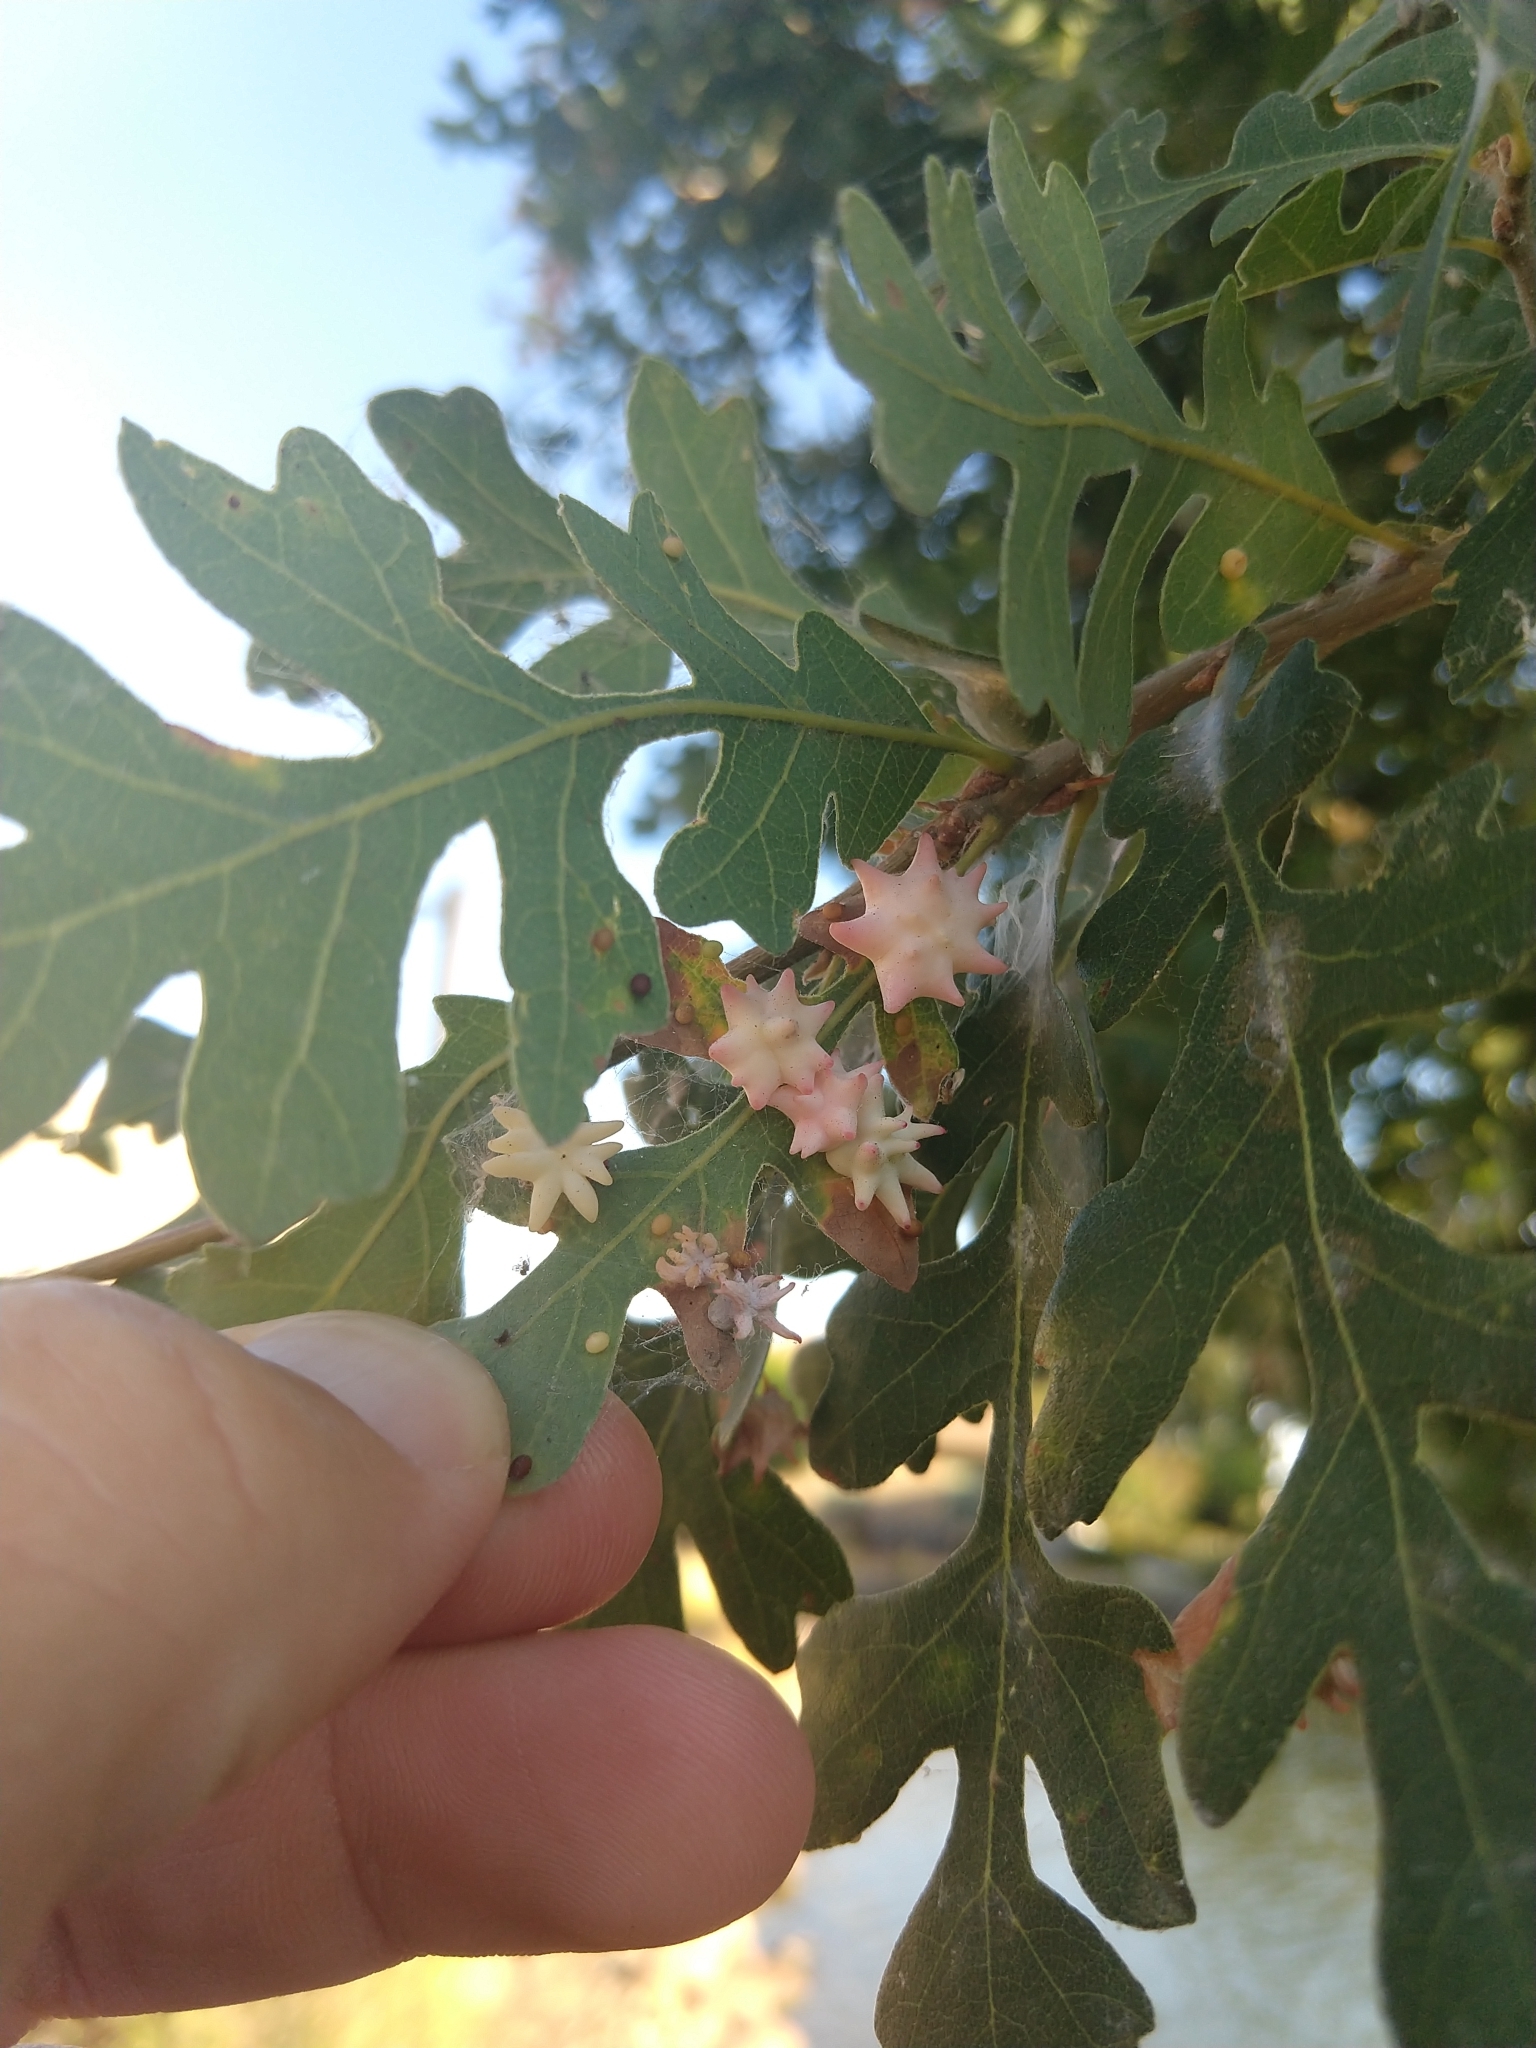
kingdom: Animalia
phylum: Arthropoda
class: Insecta
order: Hymenoptera
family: Cynipidae
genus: Cynips
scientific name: Cynips douglasi
